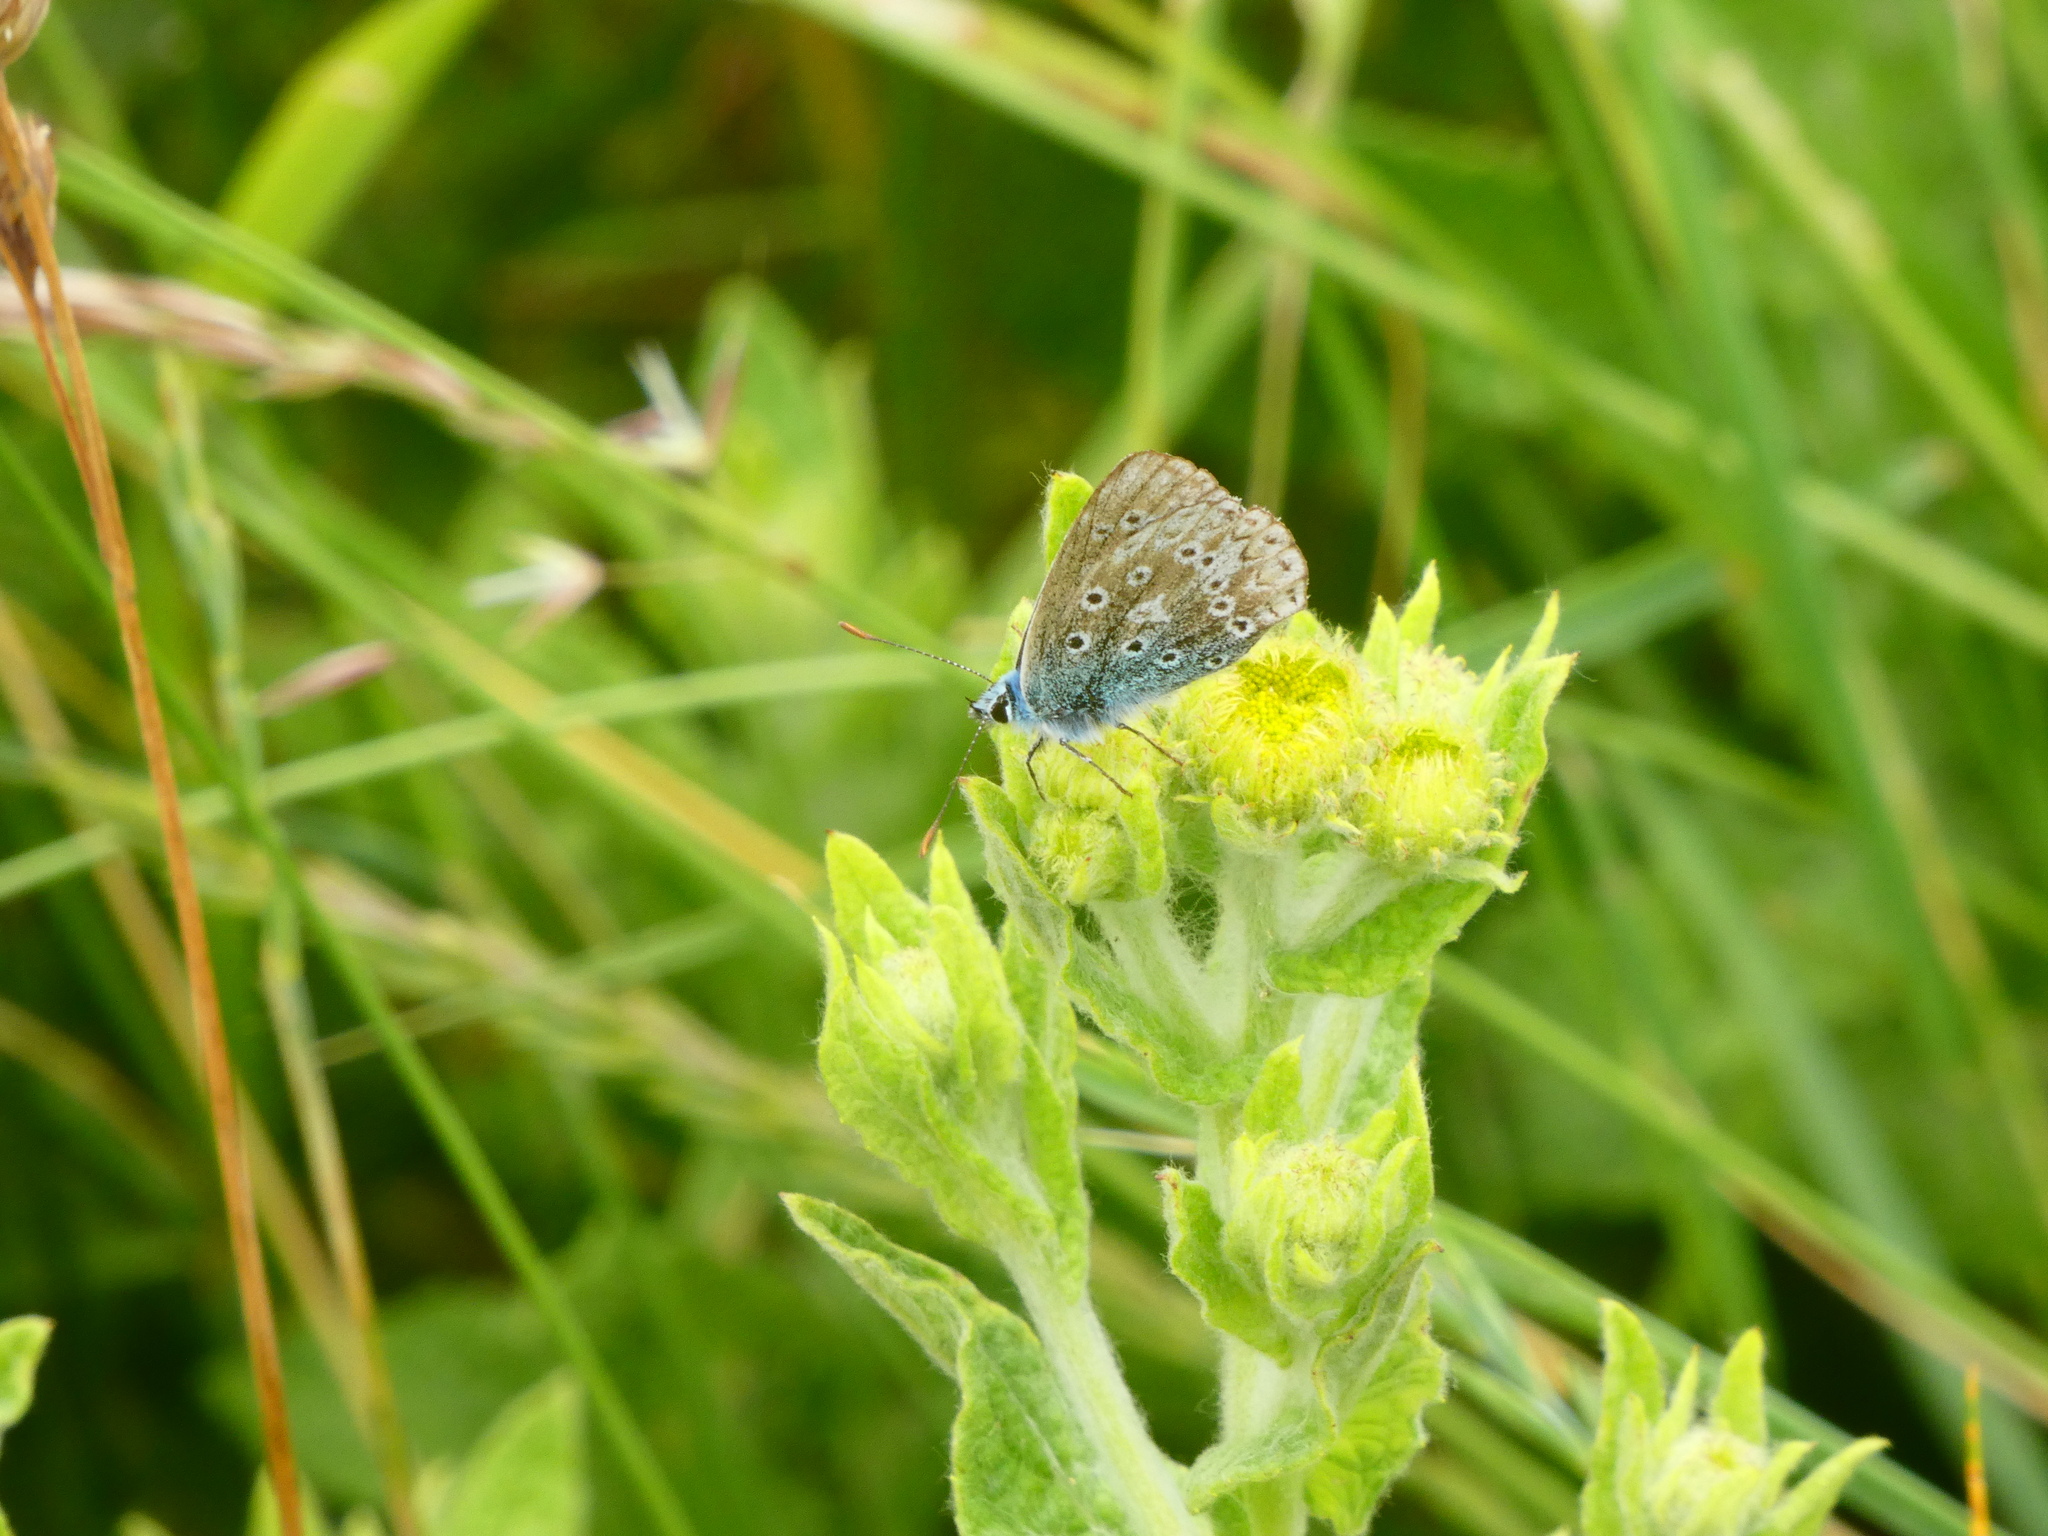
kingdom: Animalia
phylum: Arthropoda
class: Insecta
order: Lepidoptera
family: Lycaenidae
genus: Lysandra
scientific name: Lysandra coridon
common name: Chalkhill blue
